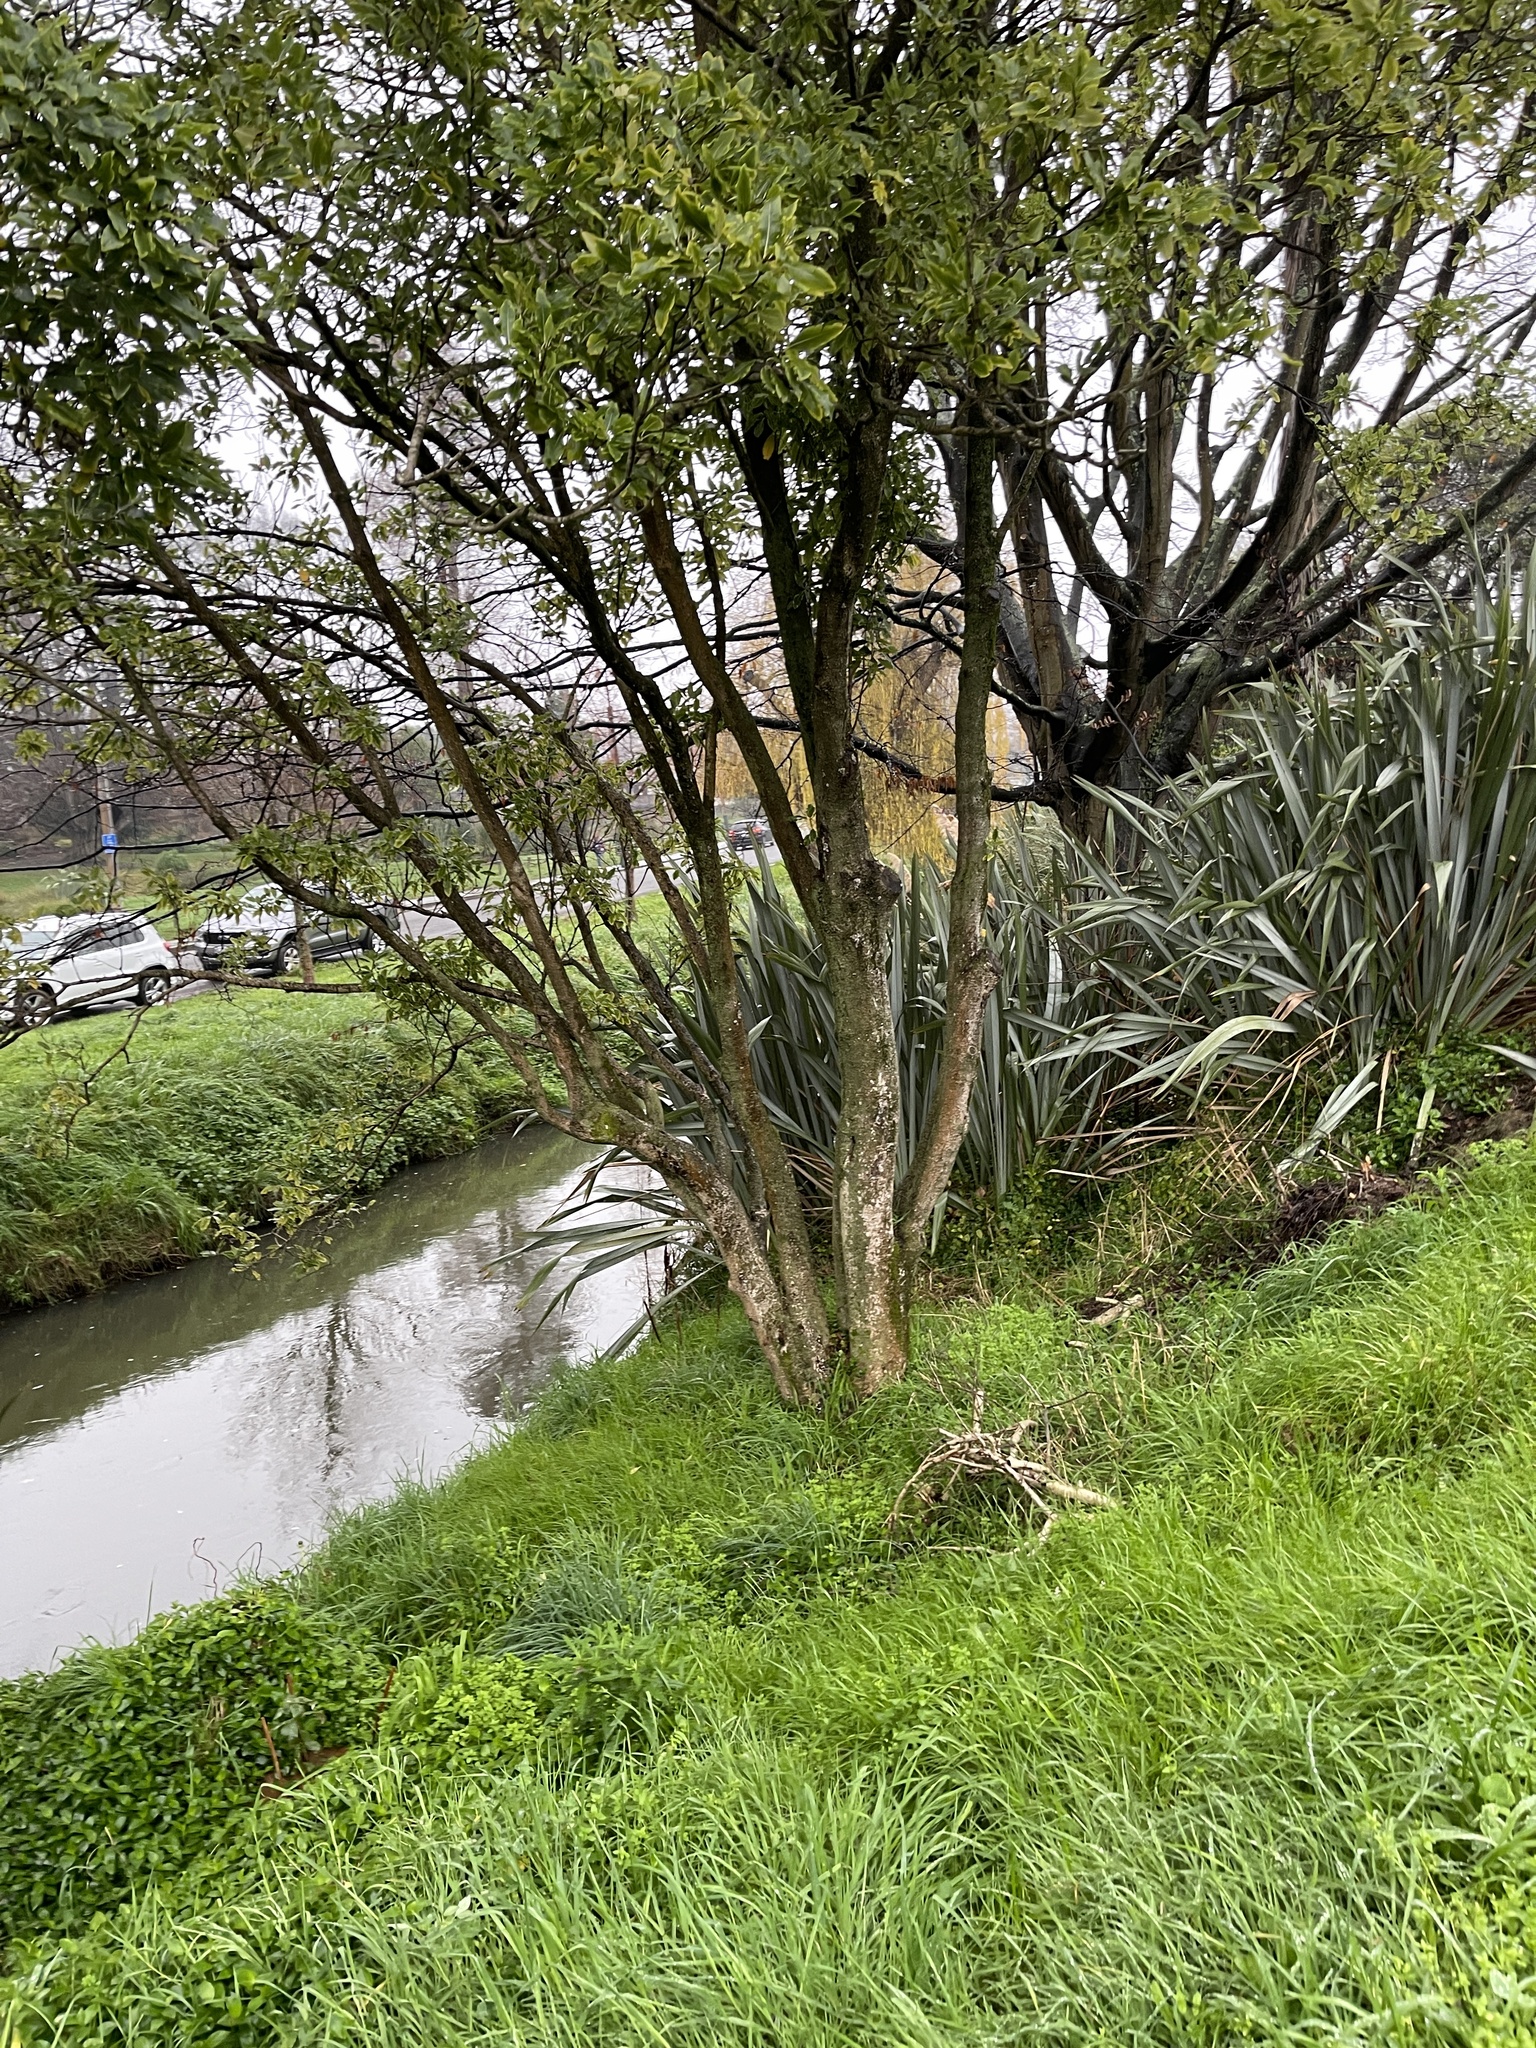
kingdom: Plantae
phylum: Tracheophyta
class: Magnoliopsida
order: Apiales
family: Pittosporaceae
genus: Pittosporum
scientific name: Pittosporum eugenioides
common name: Lemonwood
